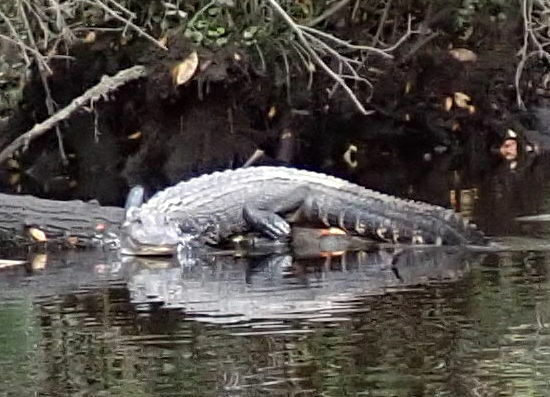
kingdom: Animalia
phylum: Chordata
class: Crocodylia
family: Alligatoridae
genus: Alligator
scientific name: Alligator mississippiensis
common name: American alligator
